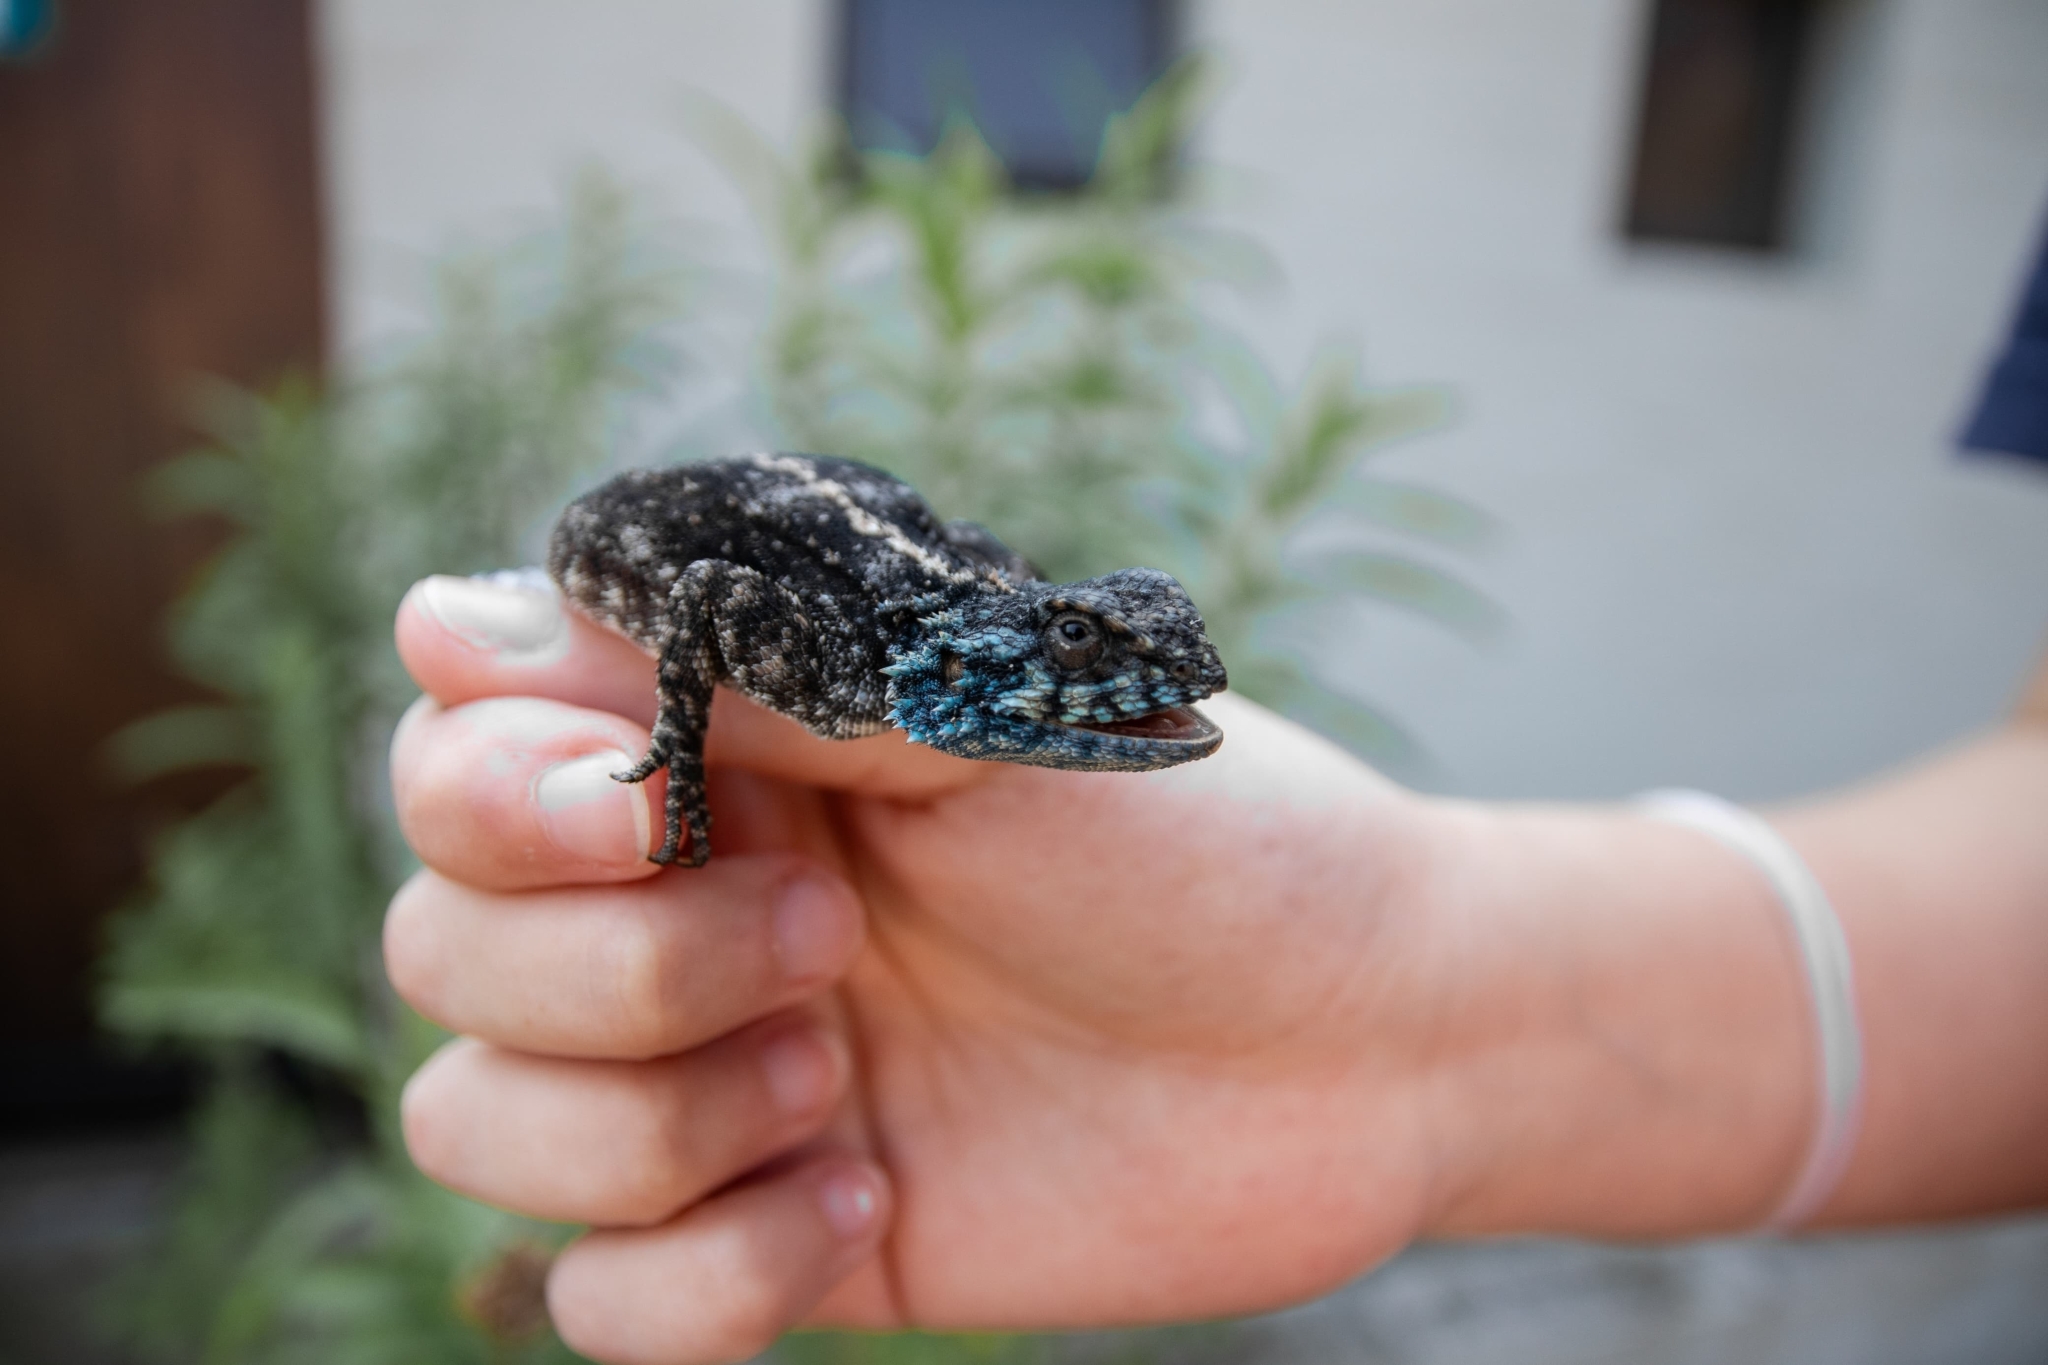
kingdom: Animalia
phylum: Chordata
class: Squamata
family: Agamidae
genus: Agama
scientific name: Agama atra
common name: Southern african rock agama
